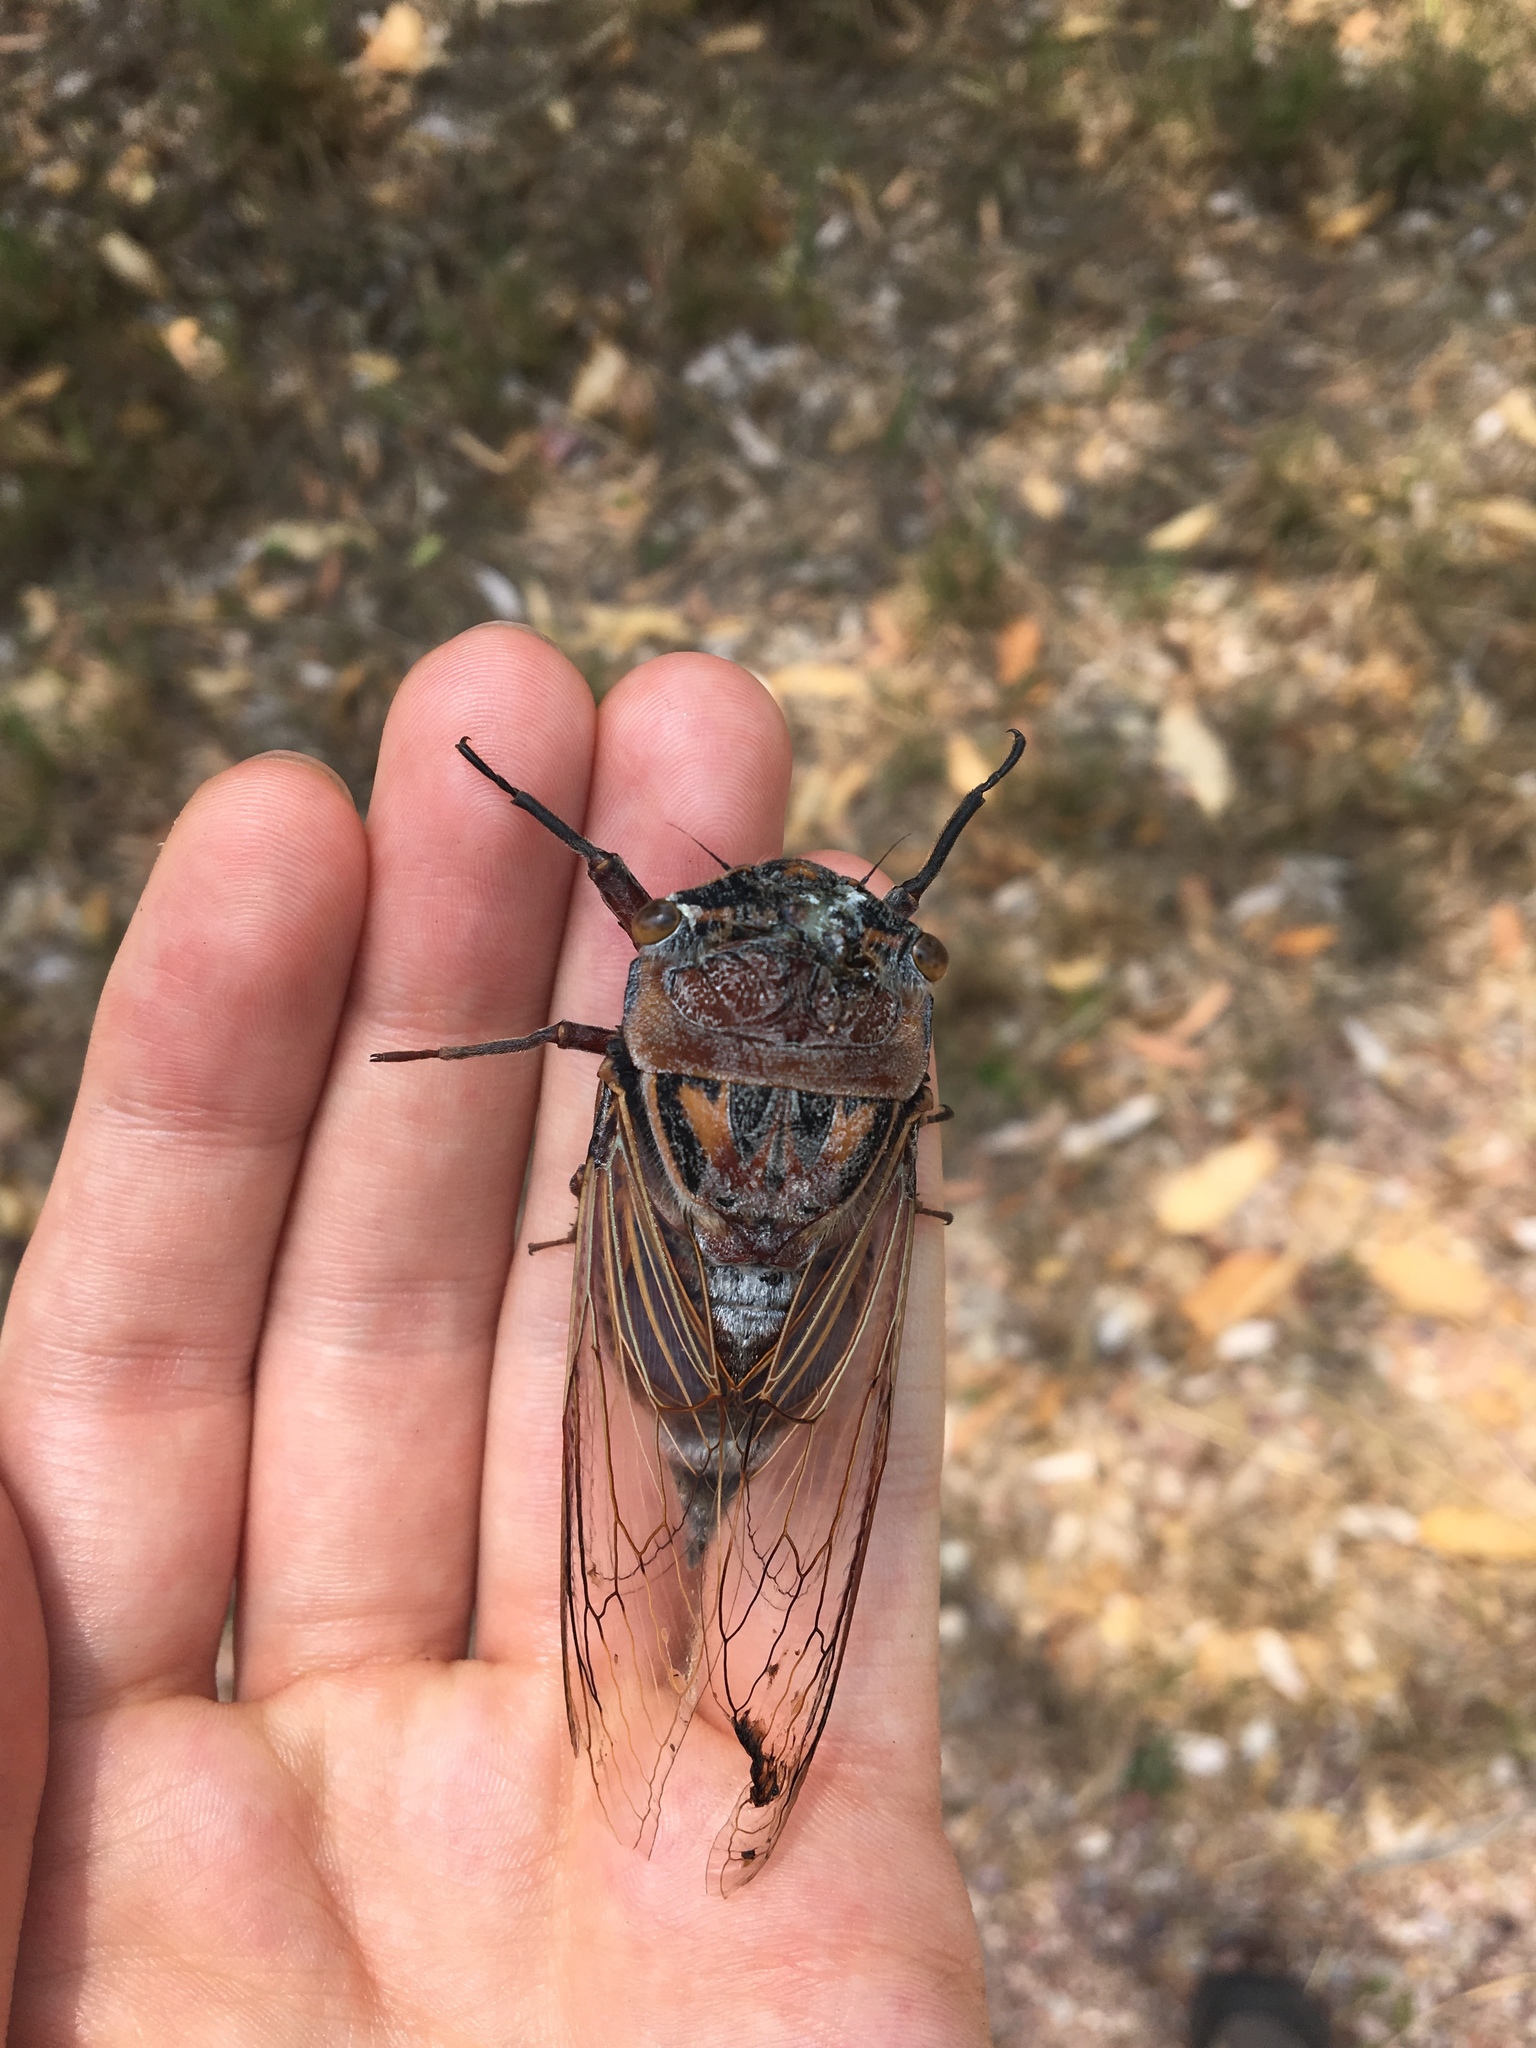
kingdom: Animalia
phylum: Arthropoda
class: Insecta
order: Hemiptera
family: Cicadidae
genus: Thopha
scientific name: Thopha saccata
